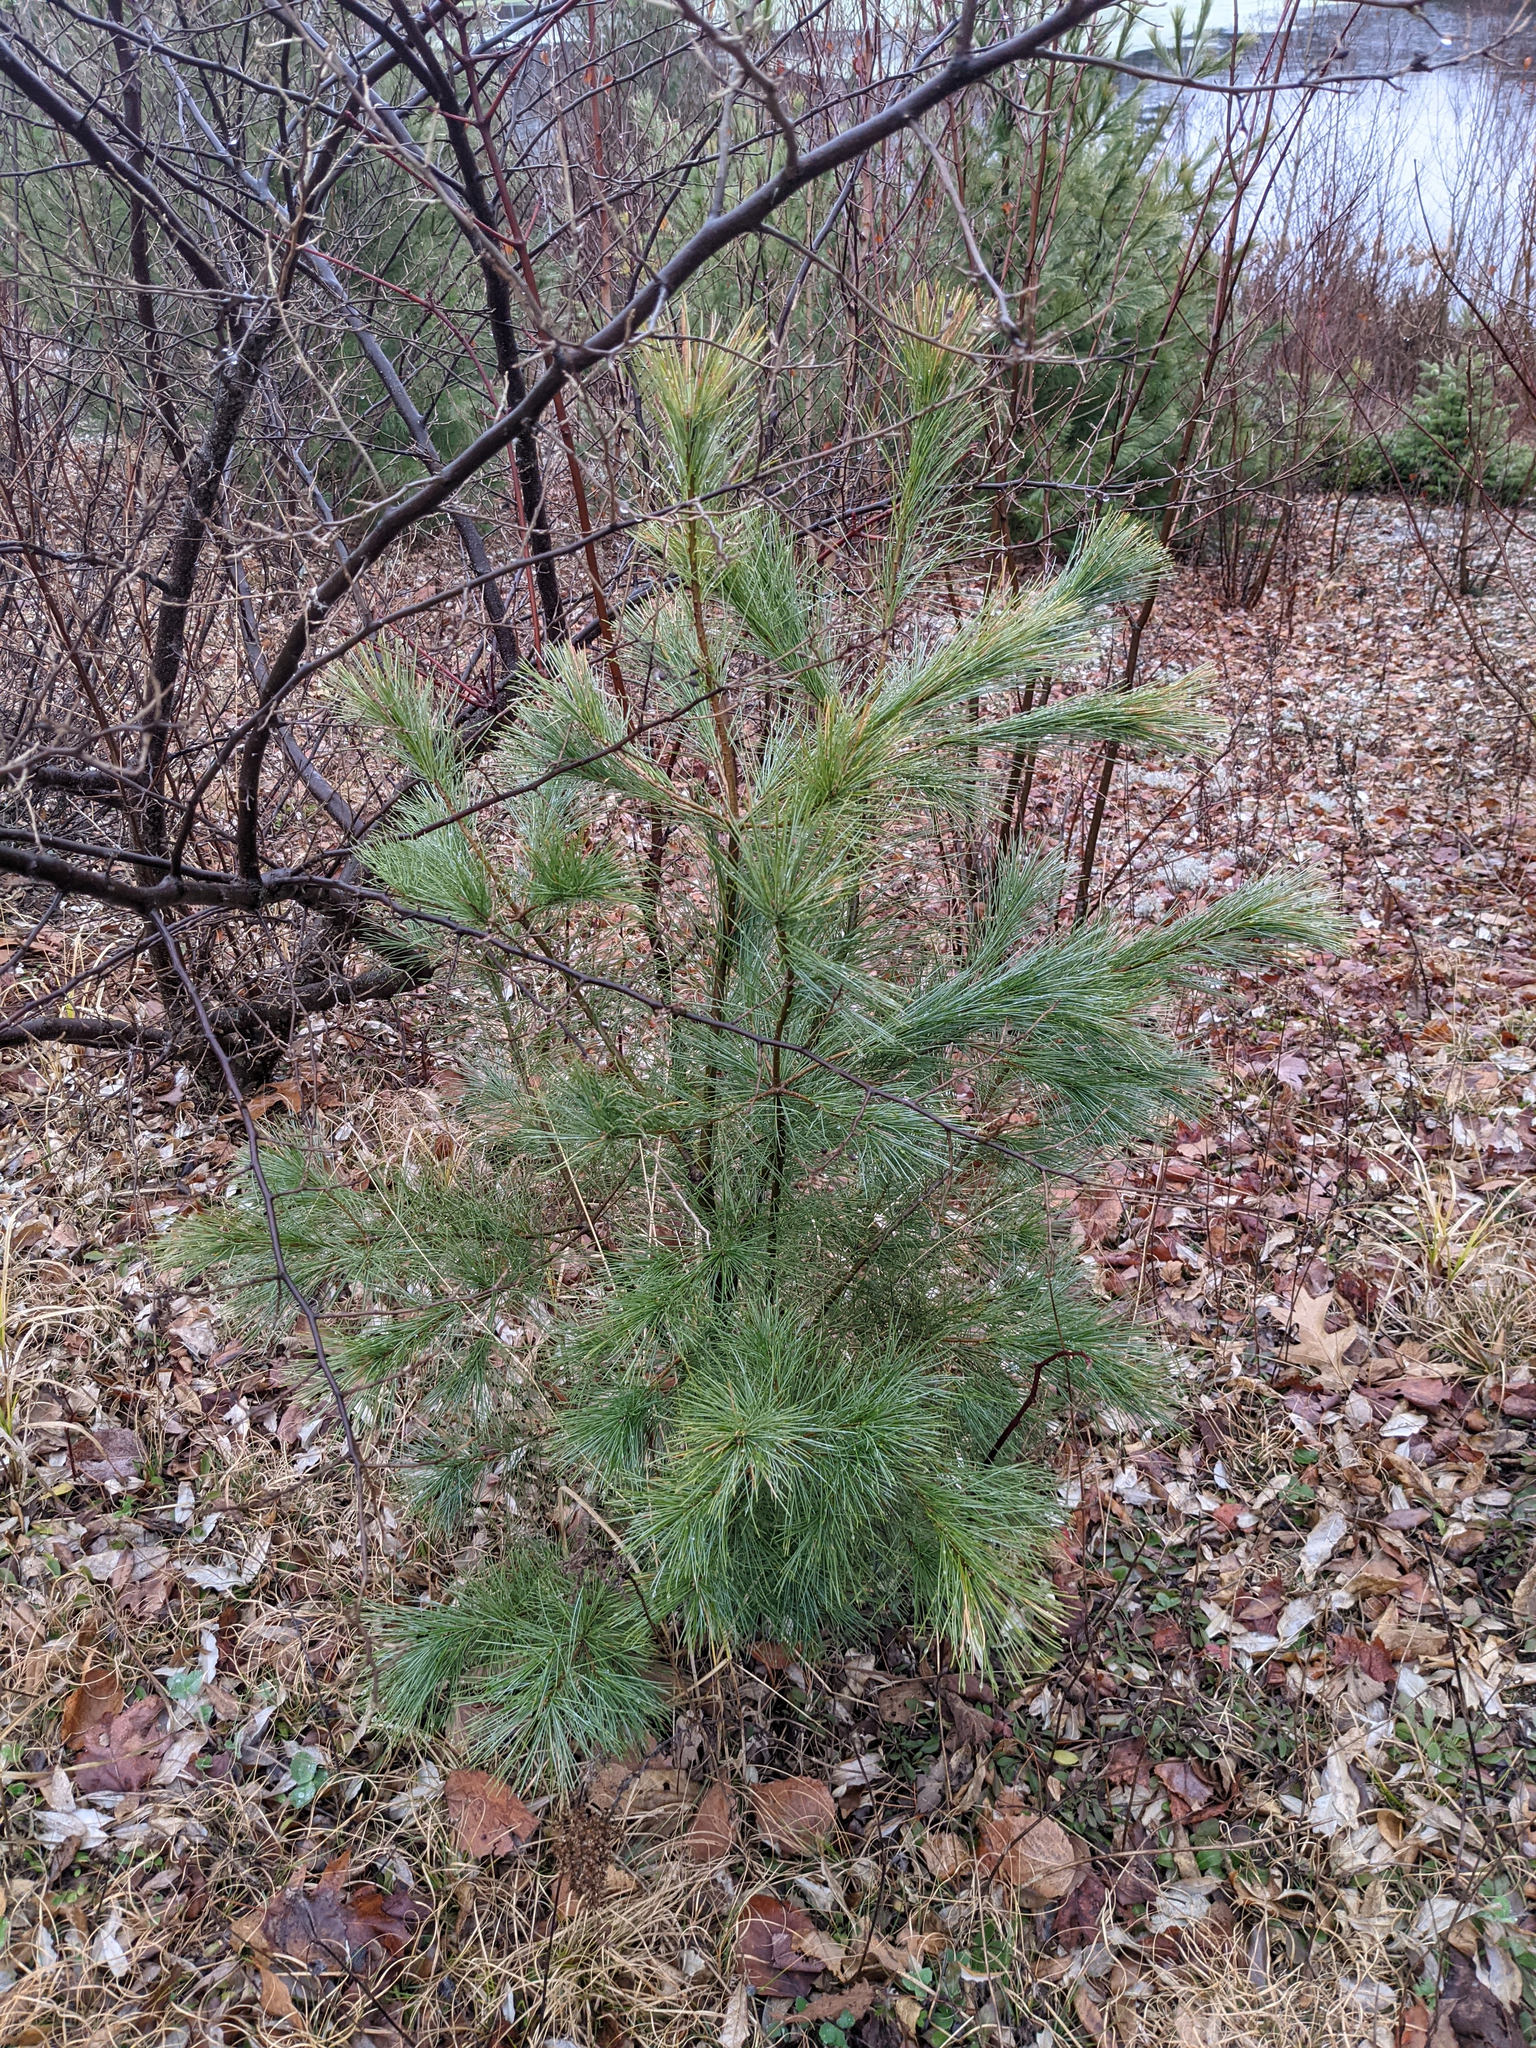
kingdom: Plantae
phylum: Tracheophyta
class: Pinopsida
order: Pinales
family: Pinaceae
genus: Pinus
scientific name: Pinus strobus
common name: Weymouth pine
